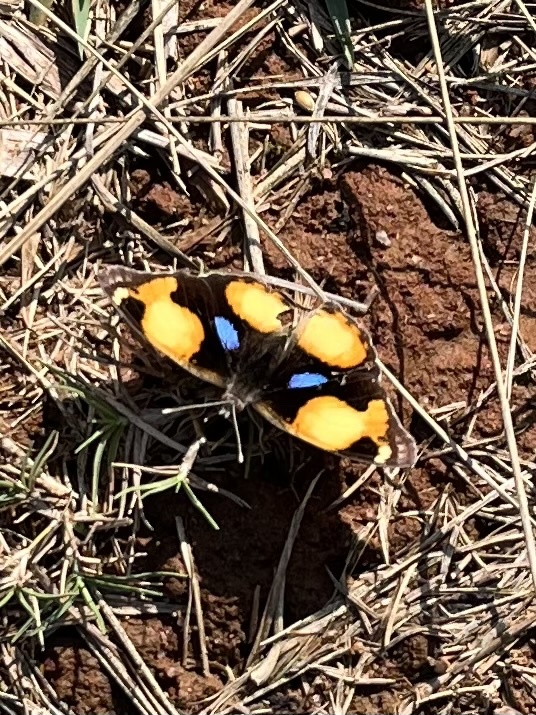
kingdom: Animalia
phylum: Arthropoda
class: Insecta
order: Lepidoptera
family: Nymphalidae
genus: Junonia
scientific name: Junonia hierta
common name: Yellow pansy
